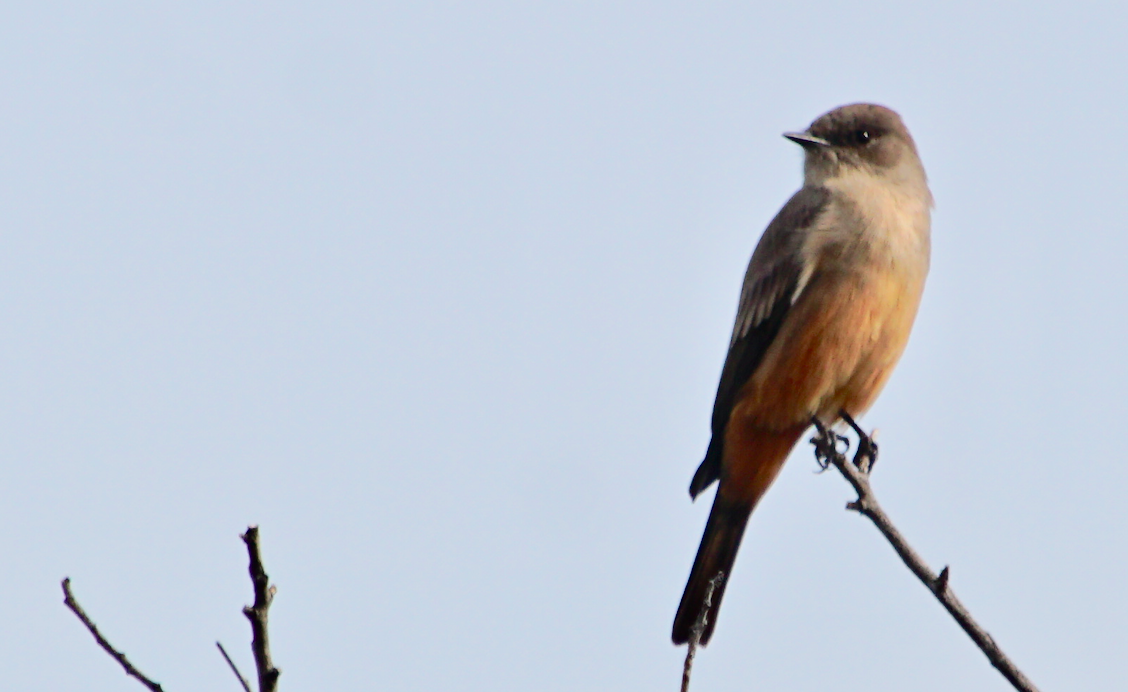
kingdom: Animalia
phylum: Chordata
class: Aves
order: Passeriformes
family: Tyrannidae
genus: Sayornis
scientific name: Sayornis saya
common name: Say's phoebe
